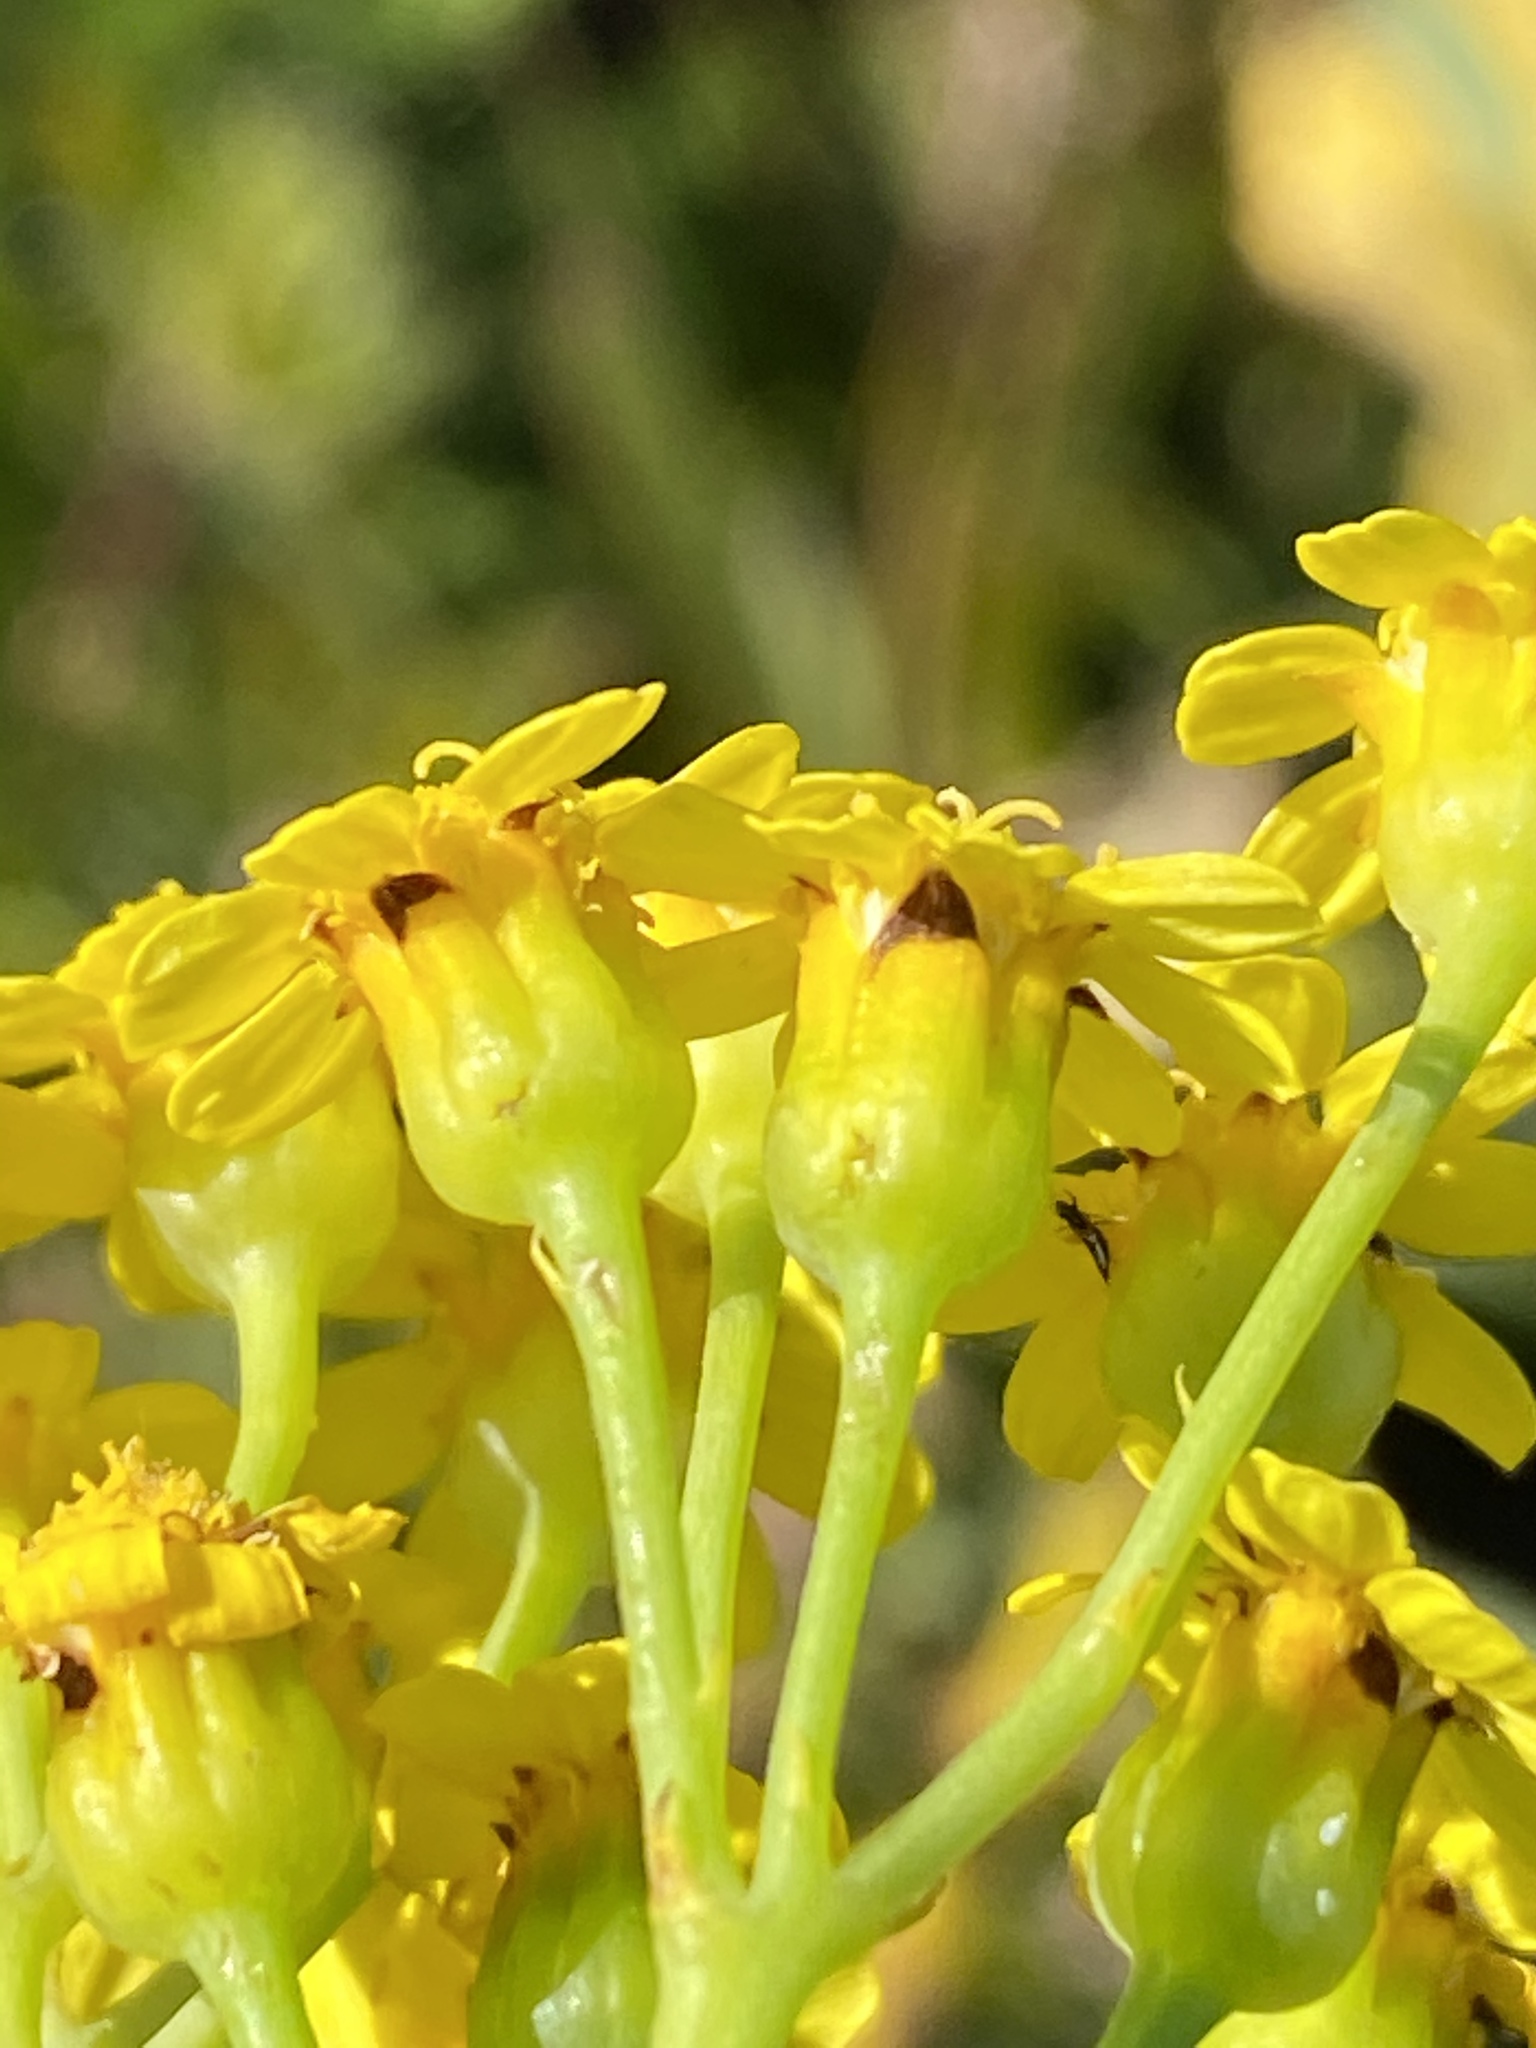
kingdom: Plantae
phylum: Tracheophyta
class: Magnoliopsida
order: Asterales
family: Asteraceae
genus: Othonna
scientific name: Othonna parviflora
